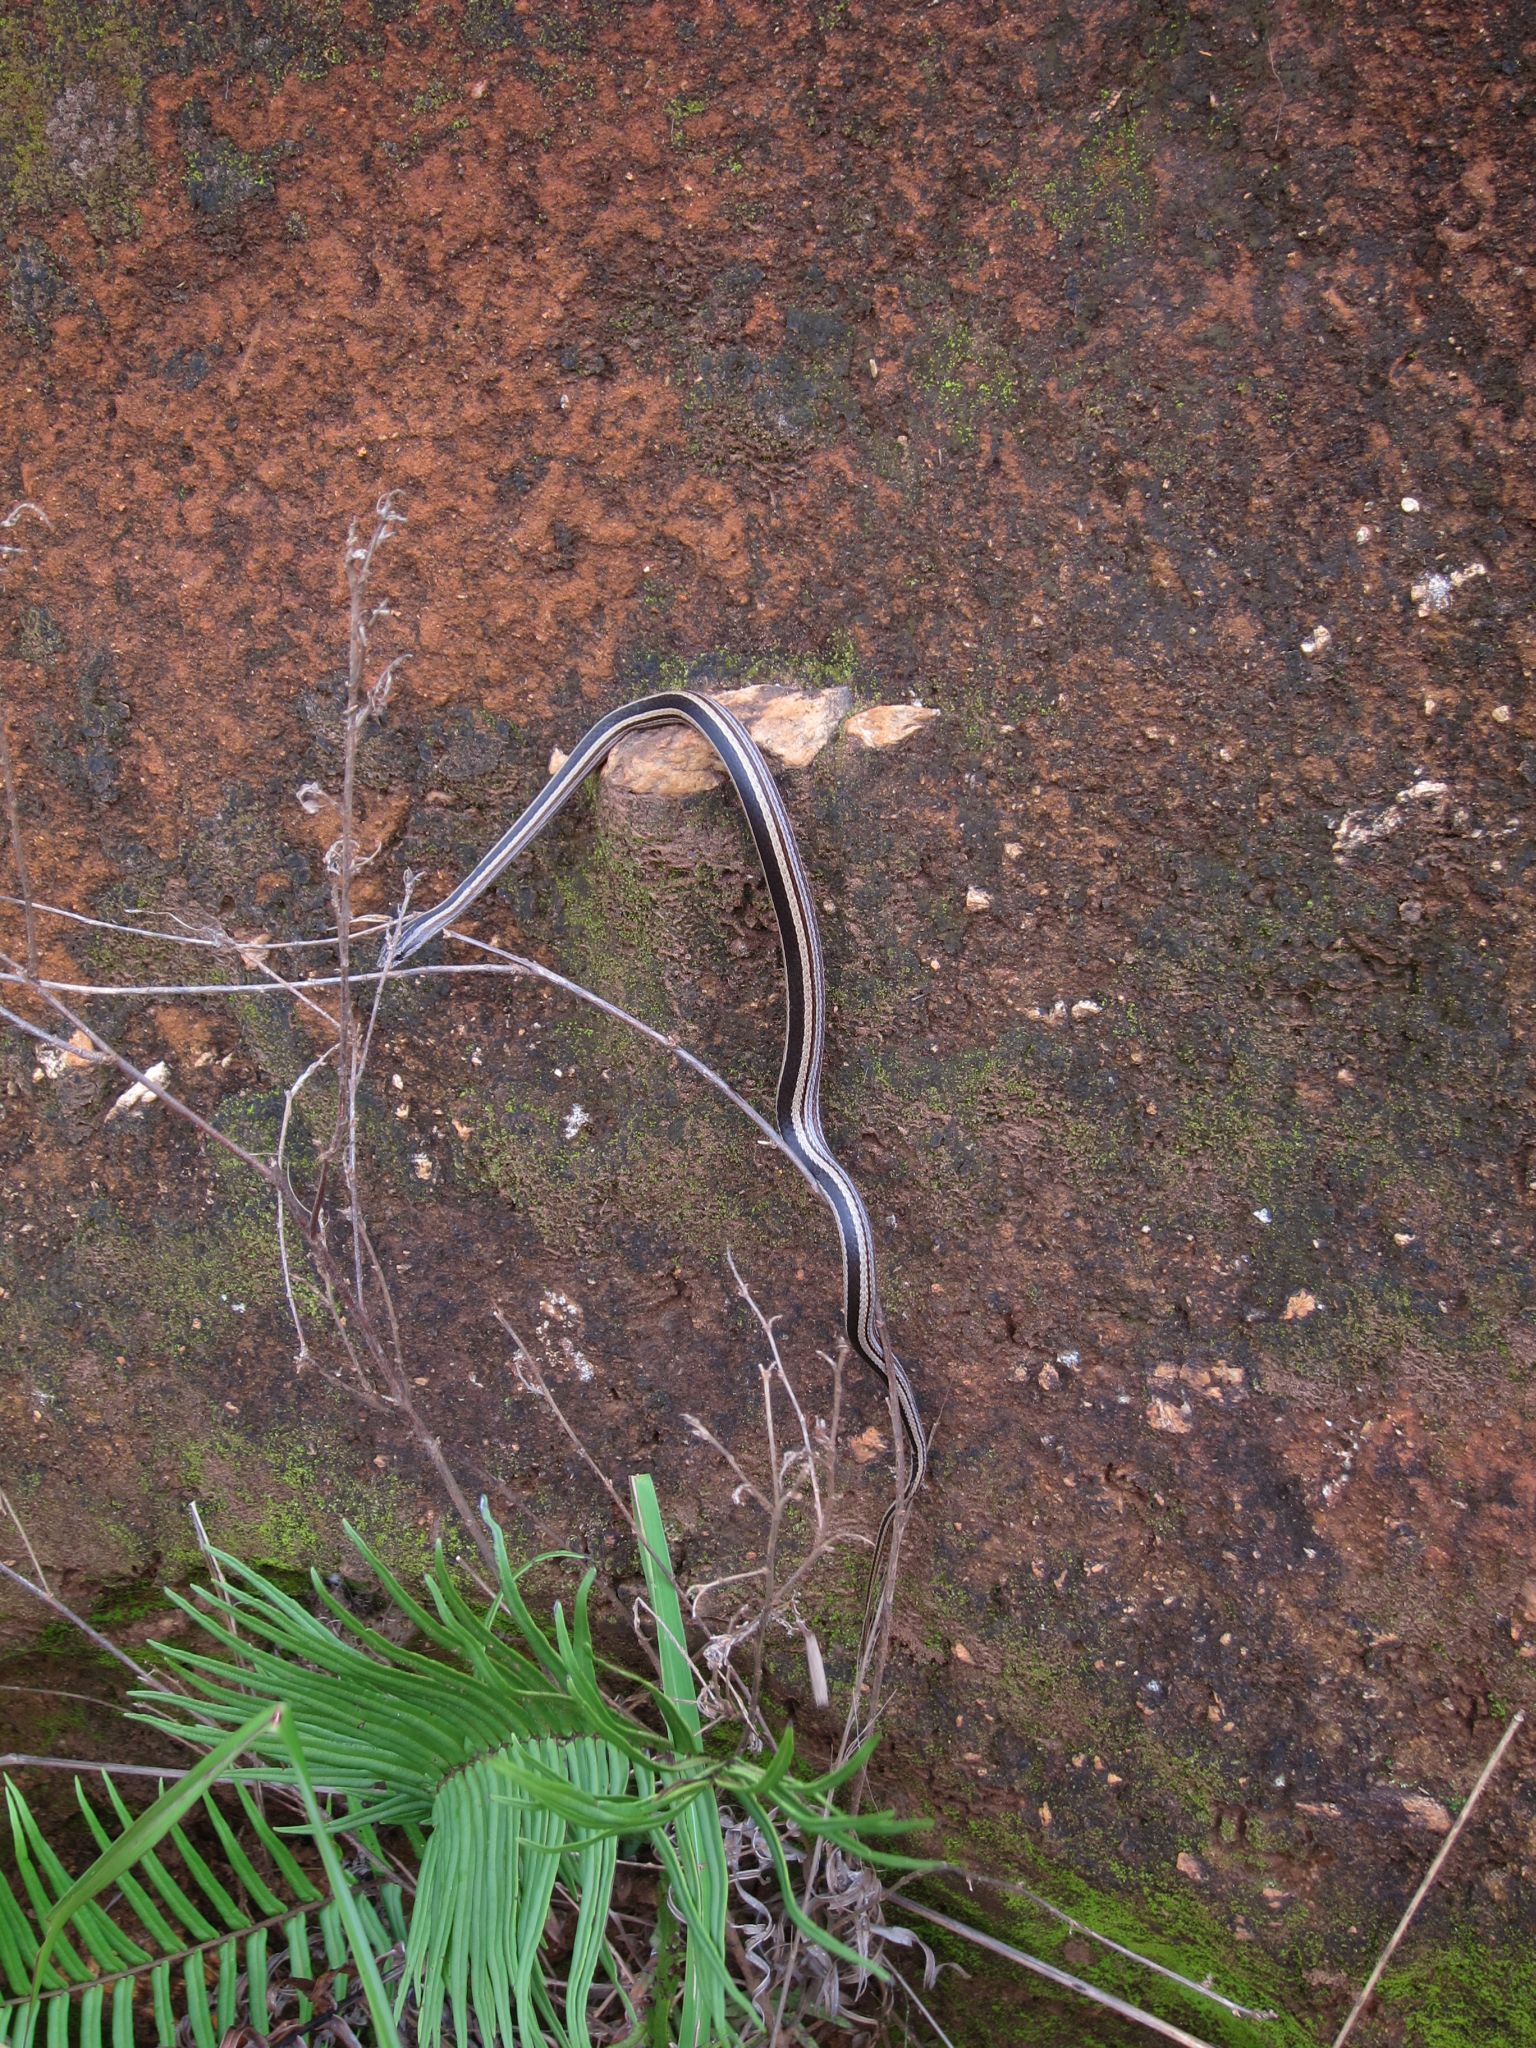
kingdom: Animalia
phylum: Chordata
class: Squamata
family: Psammophiidae
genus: Mimophis
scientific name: Mimophis mahfalensis
